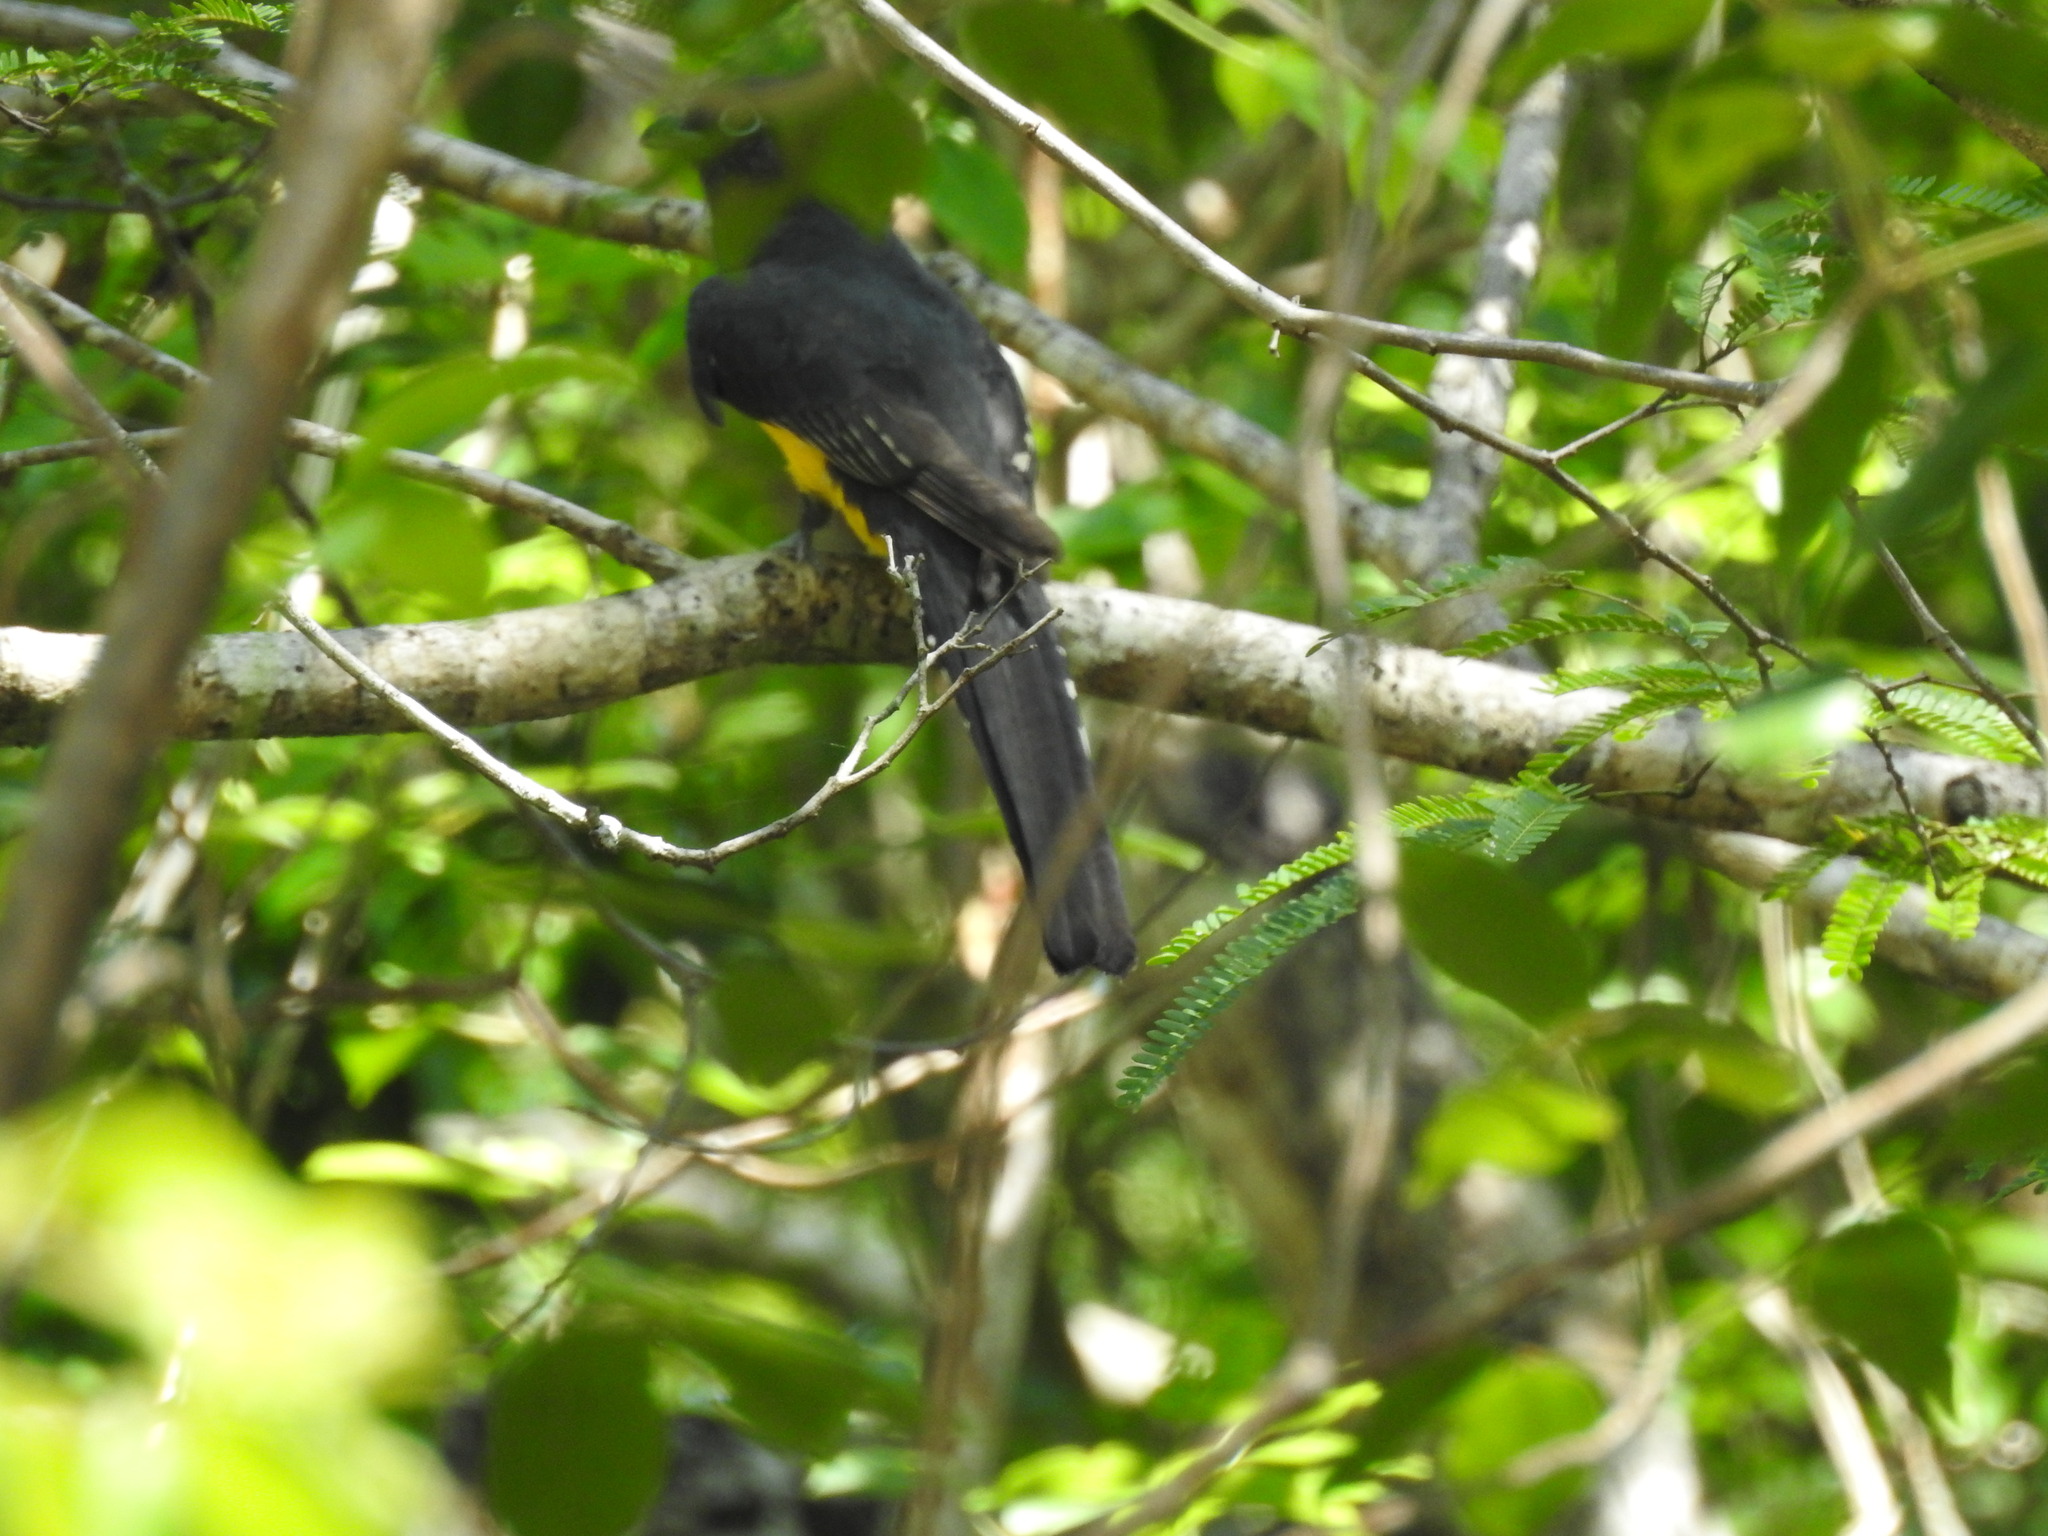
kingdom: Animalia
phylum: Chordata
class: Aves
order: Trogoniformes
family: Trogonidae
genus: Trogon
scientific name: Trogon melanocephalus
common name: Black-headed trogon
